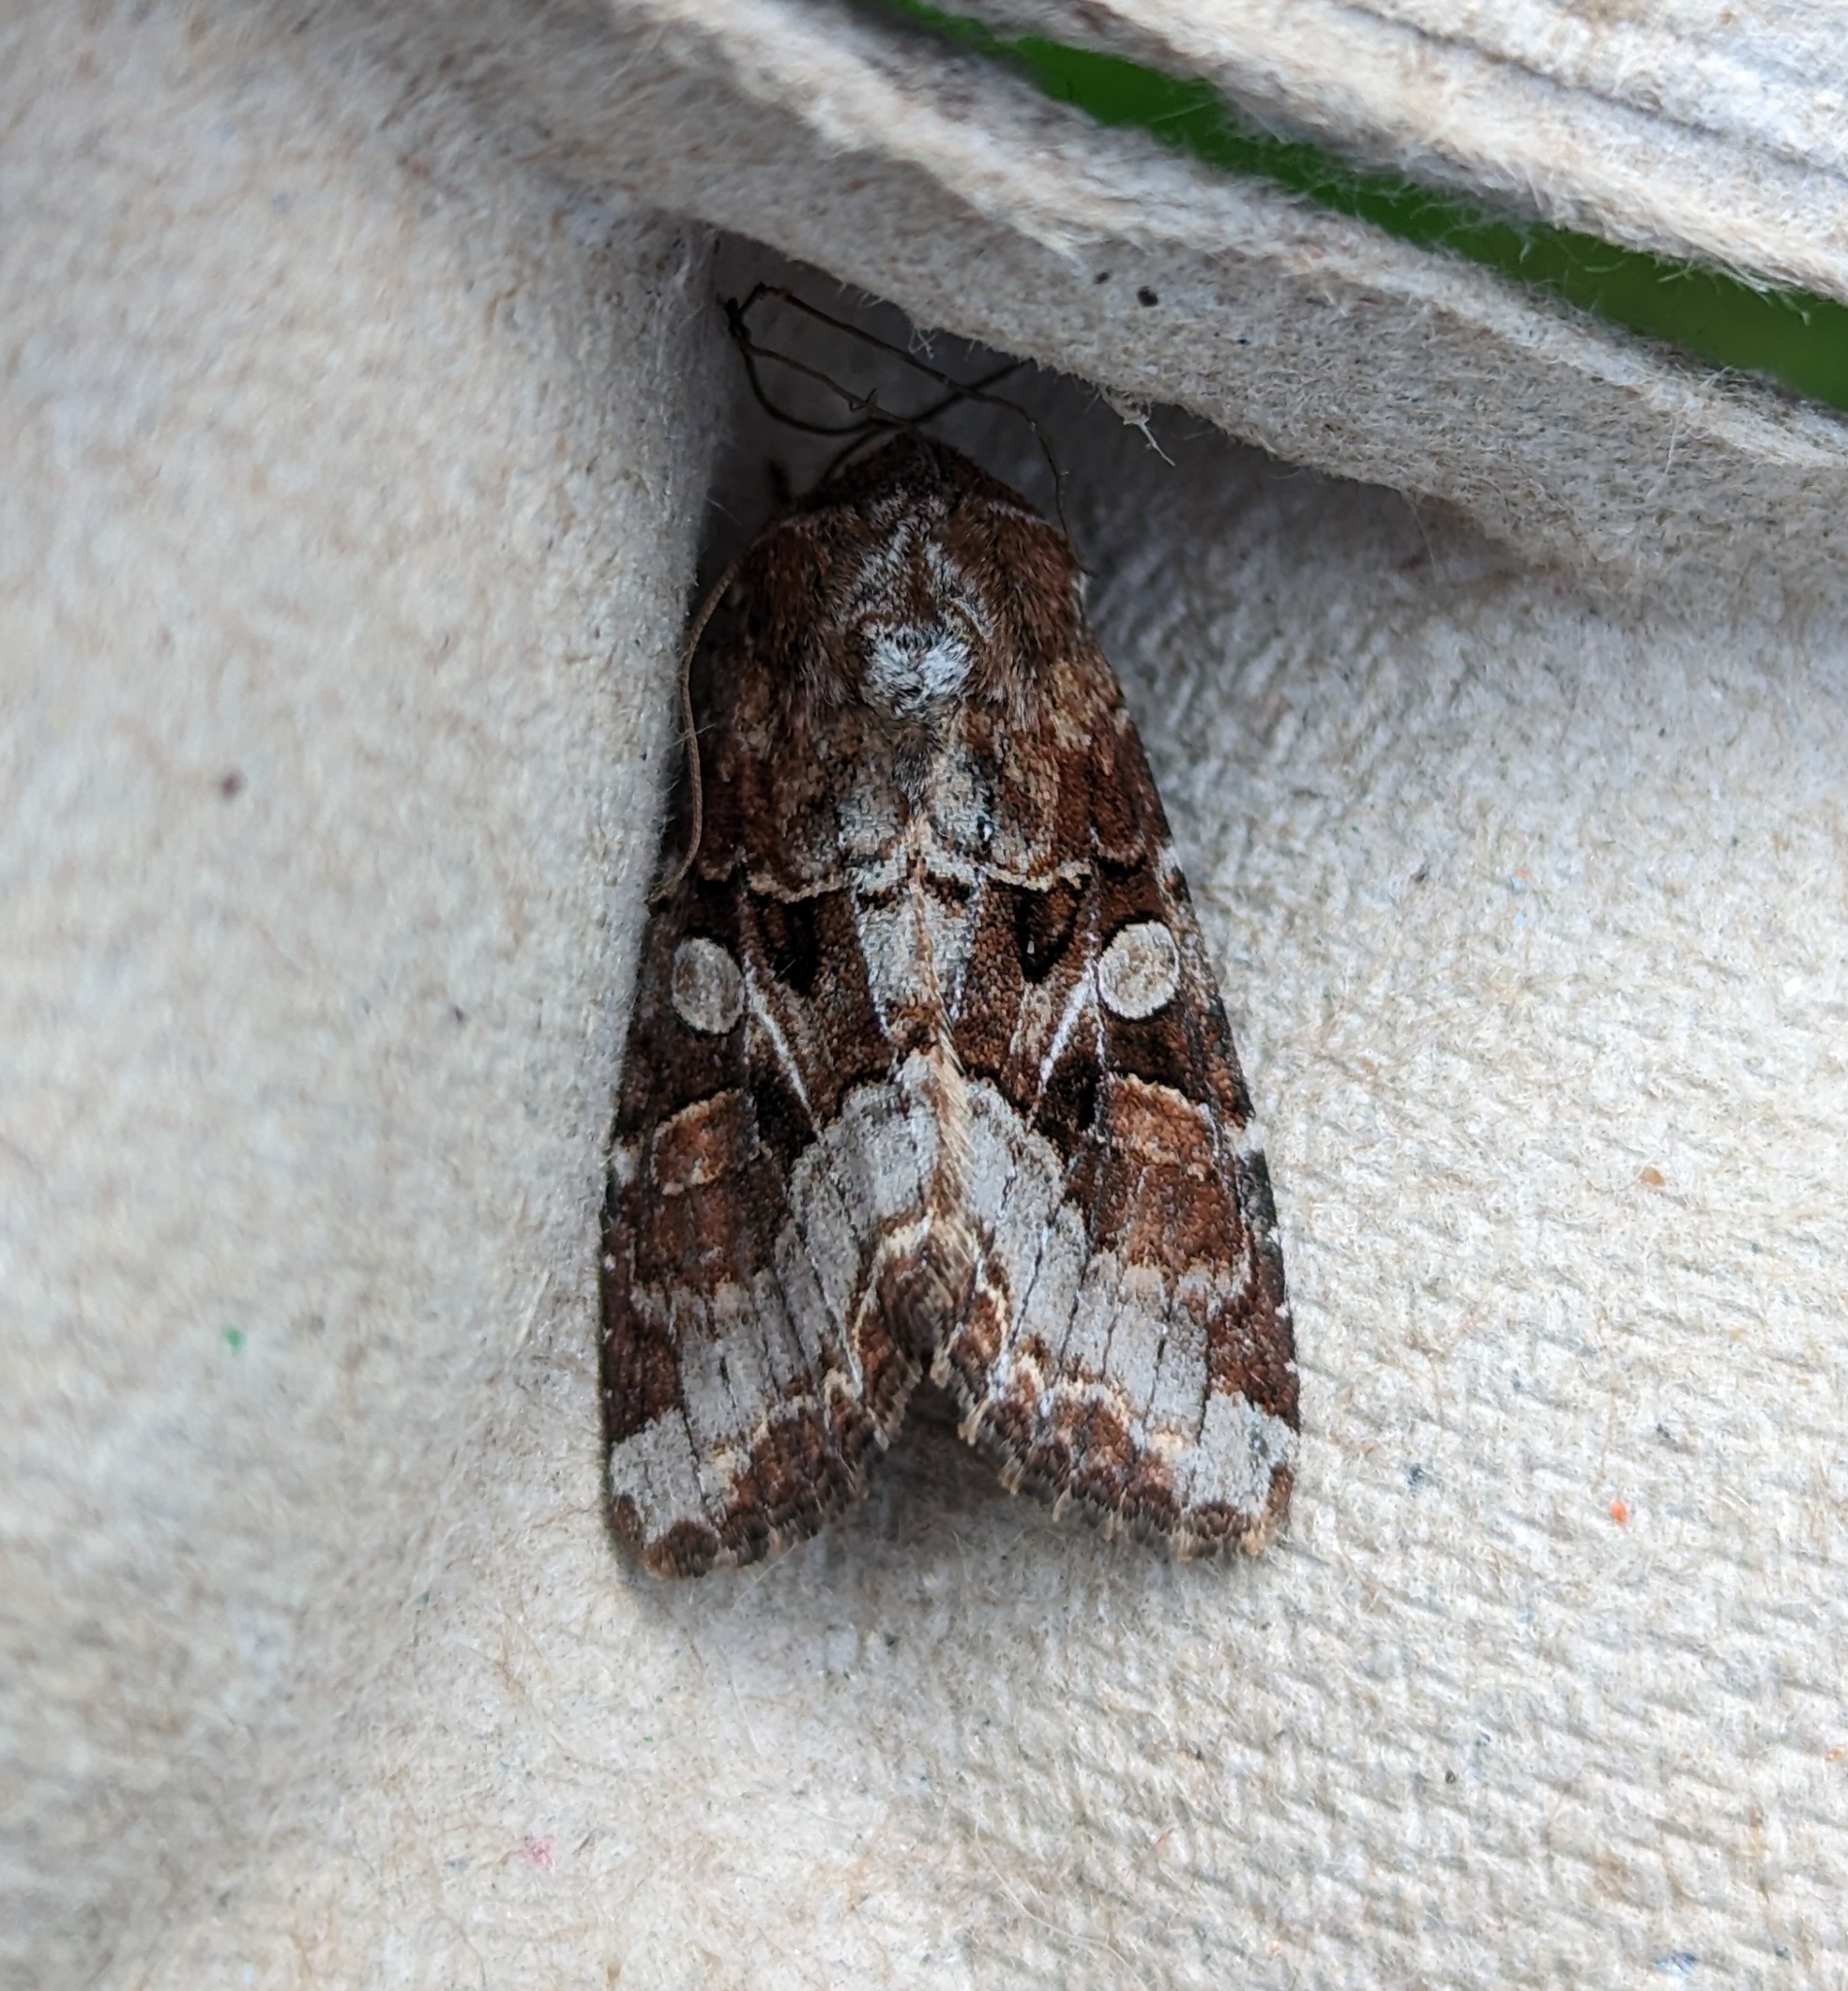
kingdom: Animalia
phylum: Arthropoda
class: Insecta
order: Lepidoptera
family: Noctuidae
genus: Trichordestra
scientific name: Trichordestra tacoma
